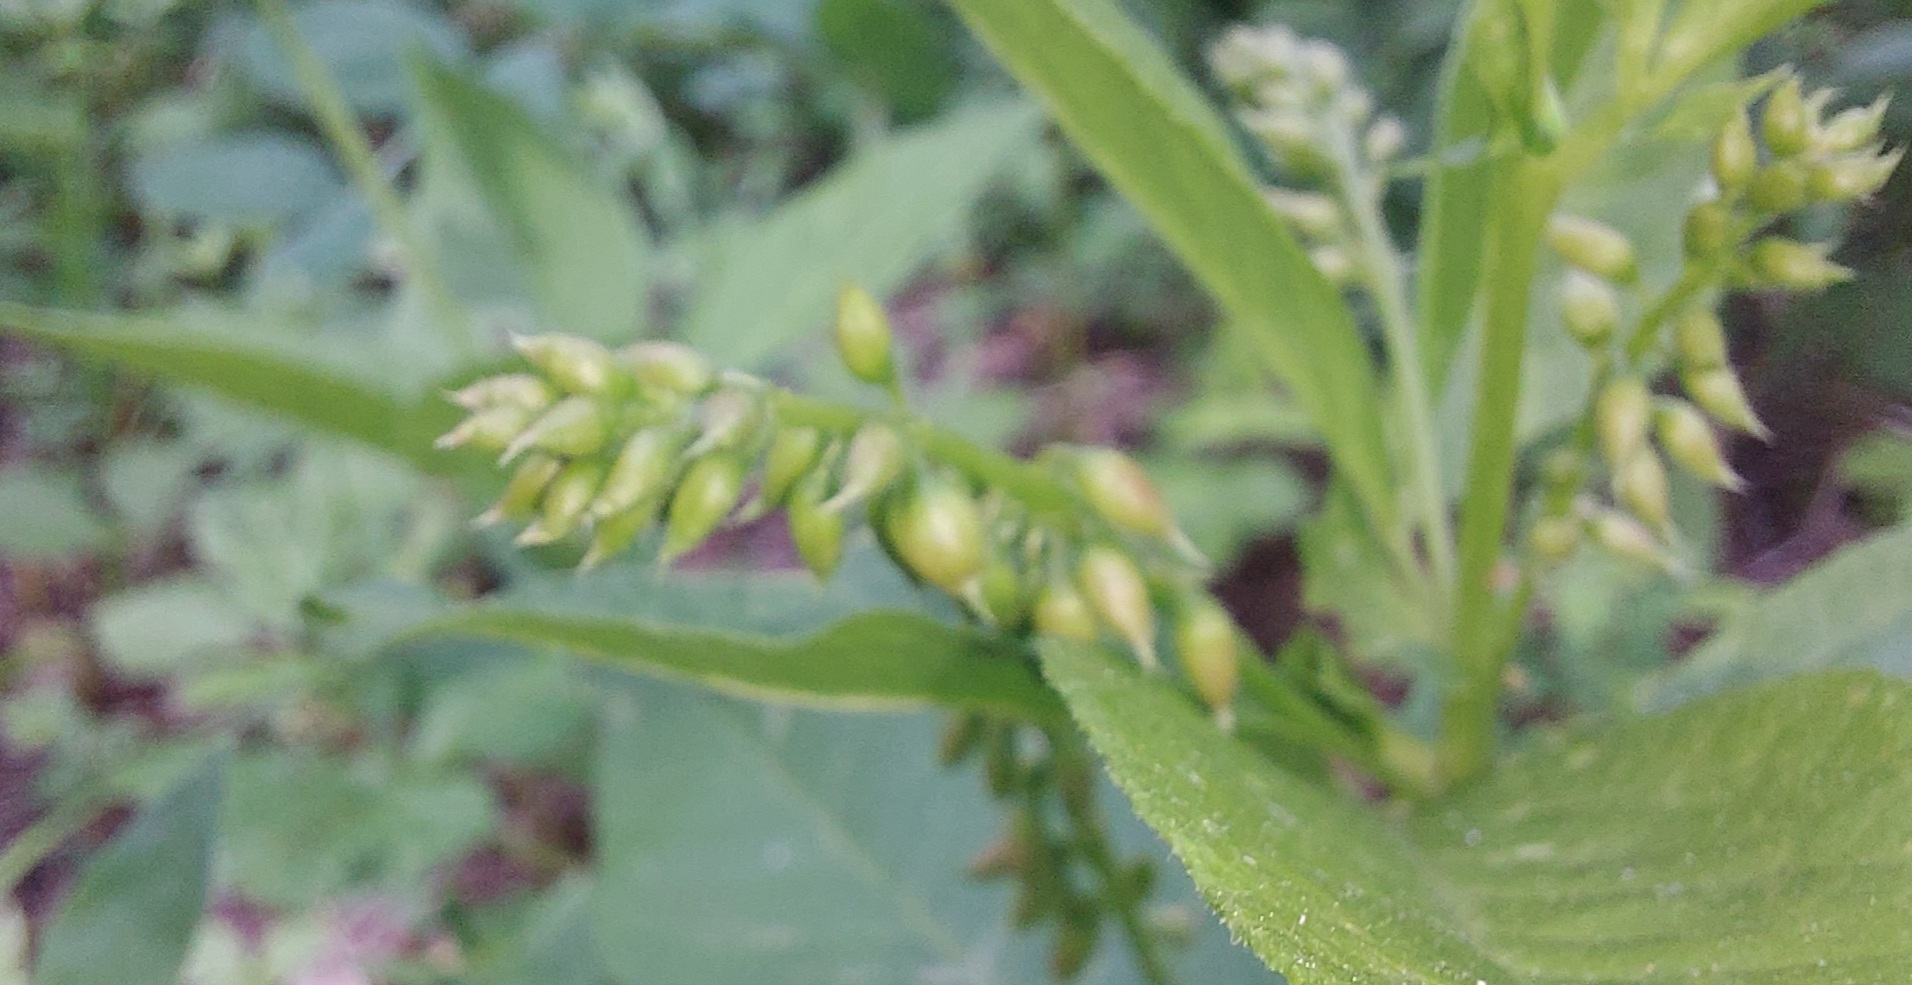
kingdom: Plantae
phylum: Tracheophyta
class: Magnoliopsida
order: Fabales
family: Fabaceae
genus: Vicia
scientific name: Vicia unijuga
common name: Two-leaf vetch
